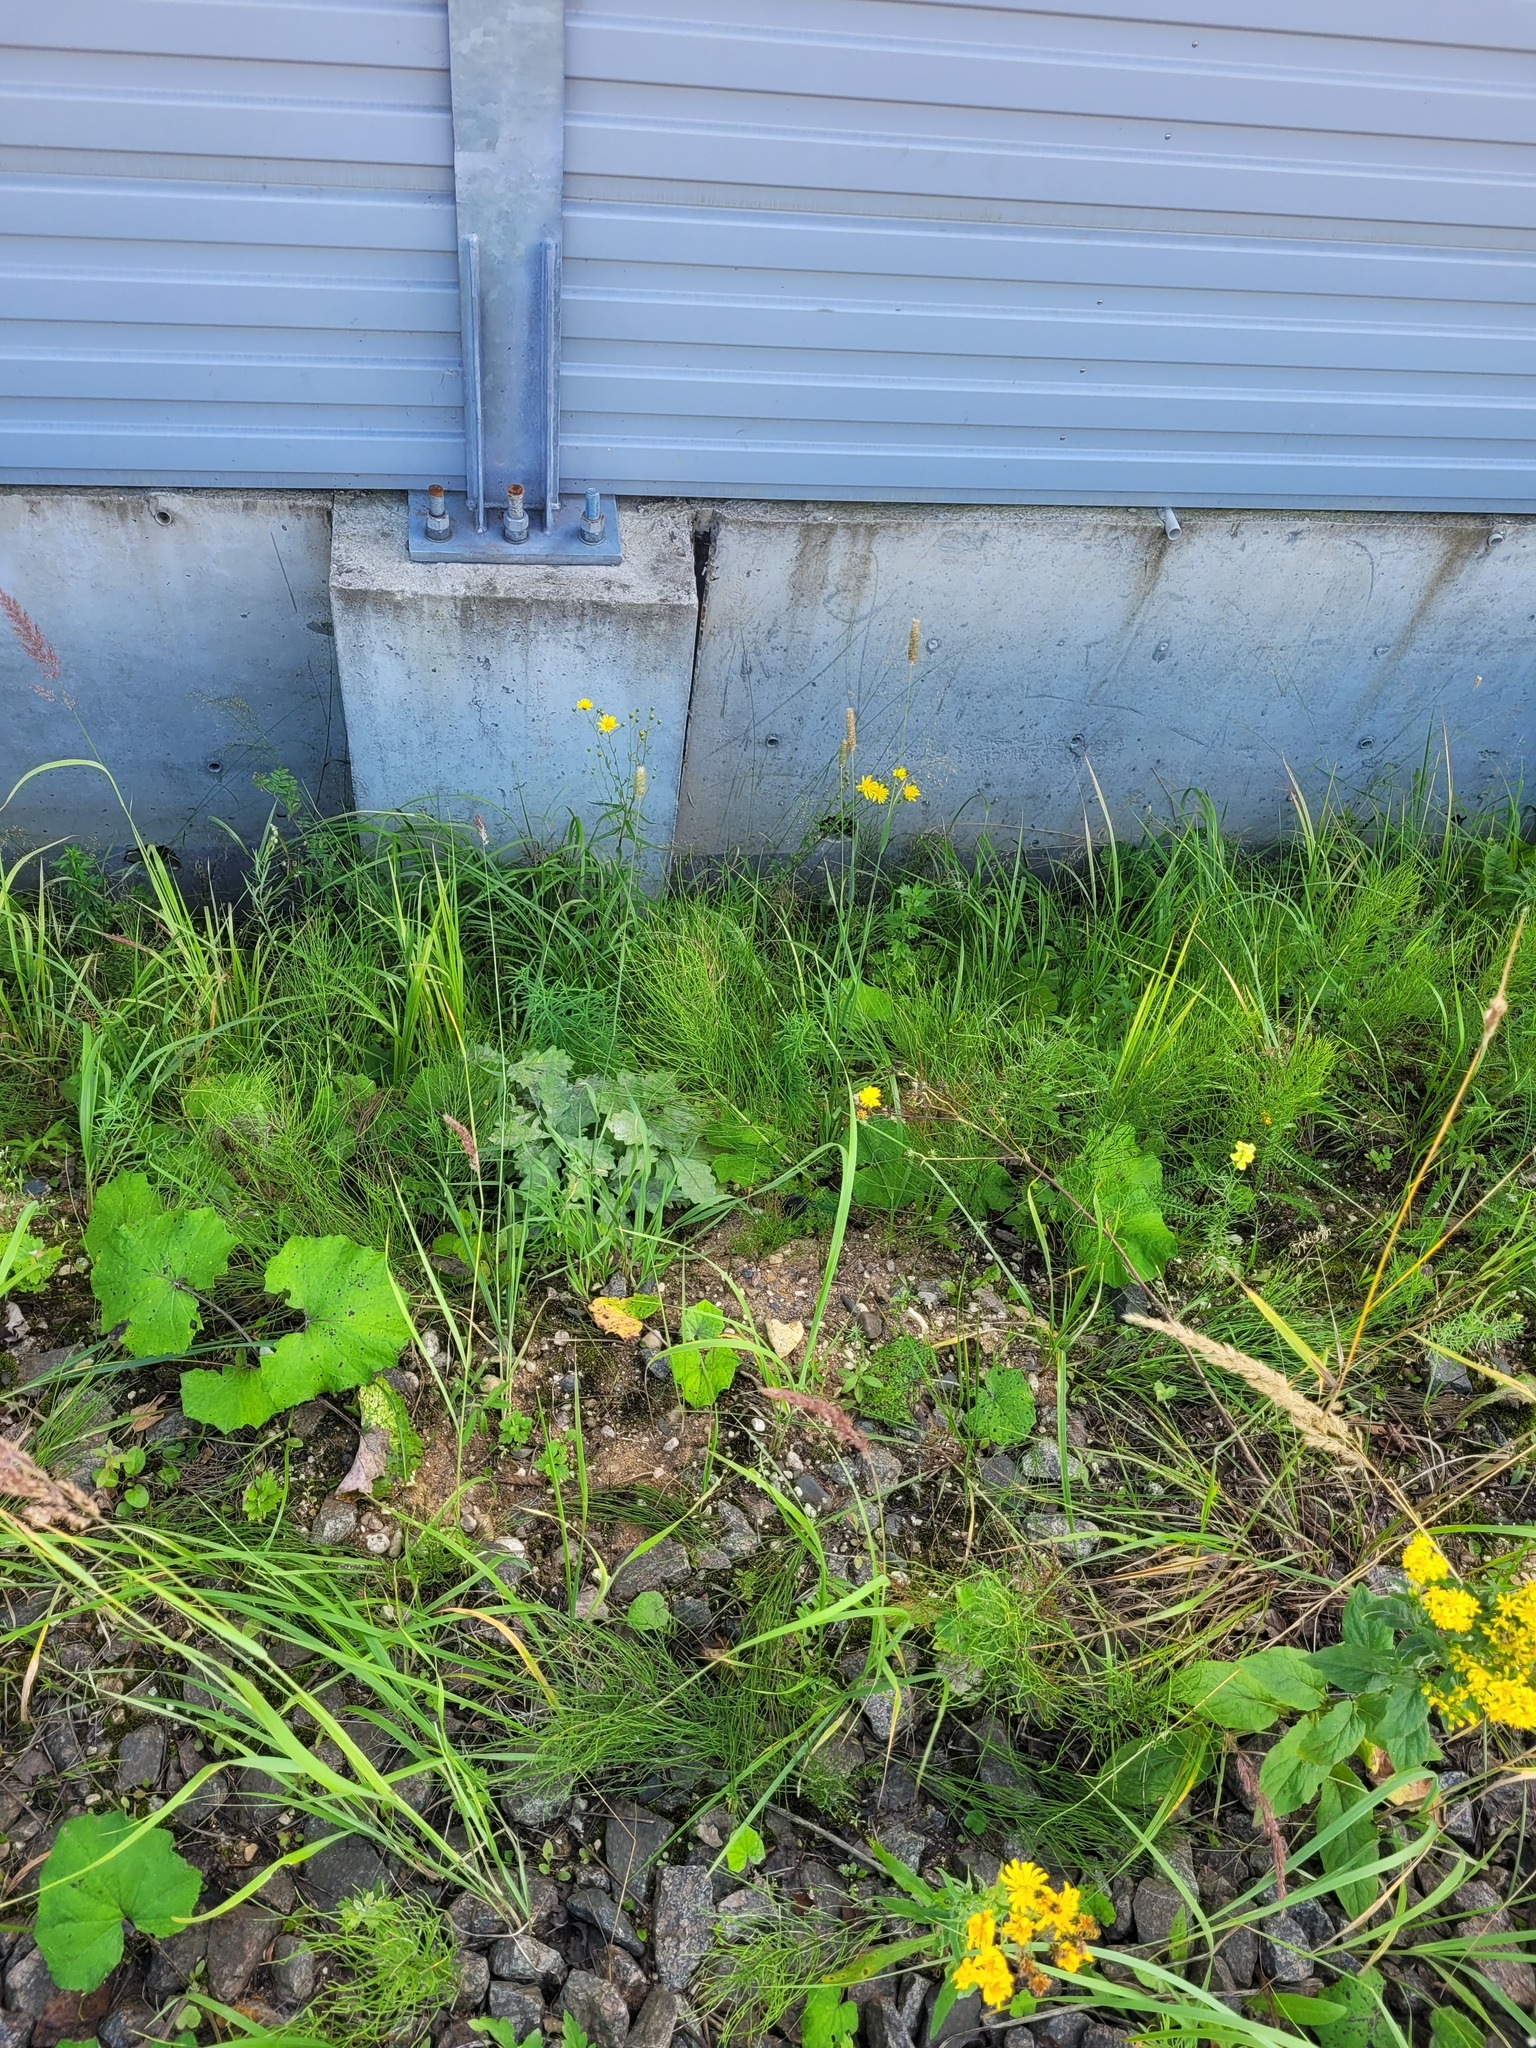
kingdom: Plantae
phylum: Tracheophyta
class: Polypodiopsida
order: Equisetales
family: Equisetaceae
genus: Equisetum
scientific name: Equisetum arvense
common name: Field horsetail
